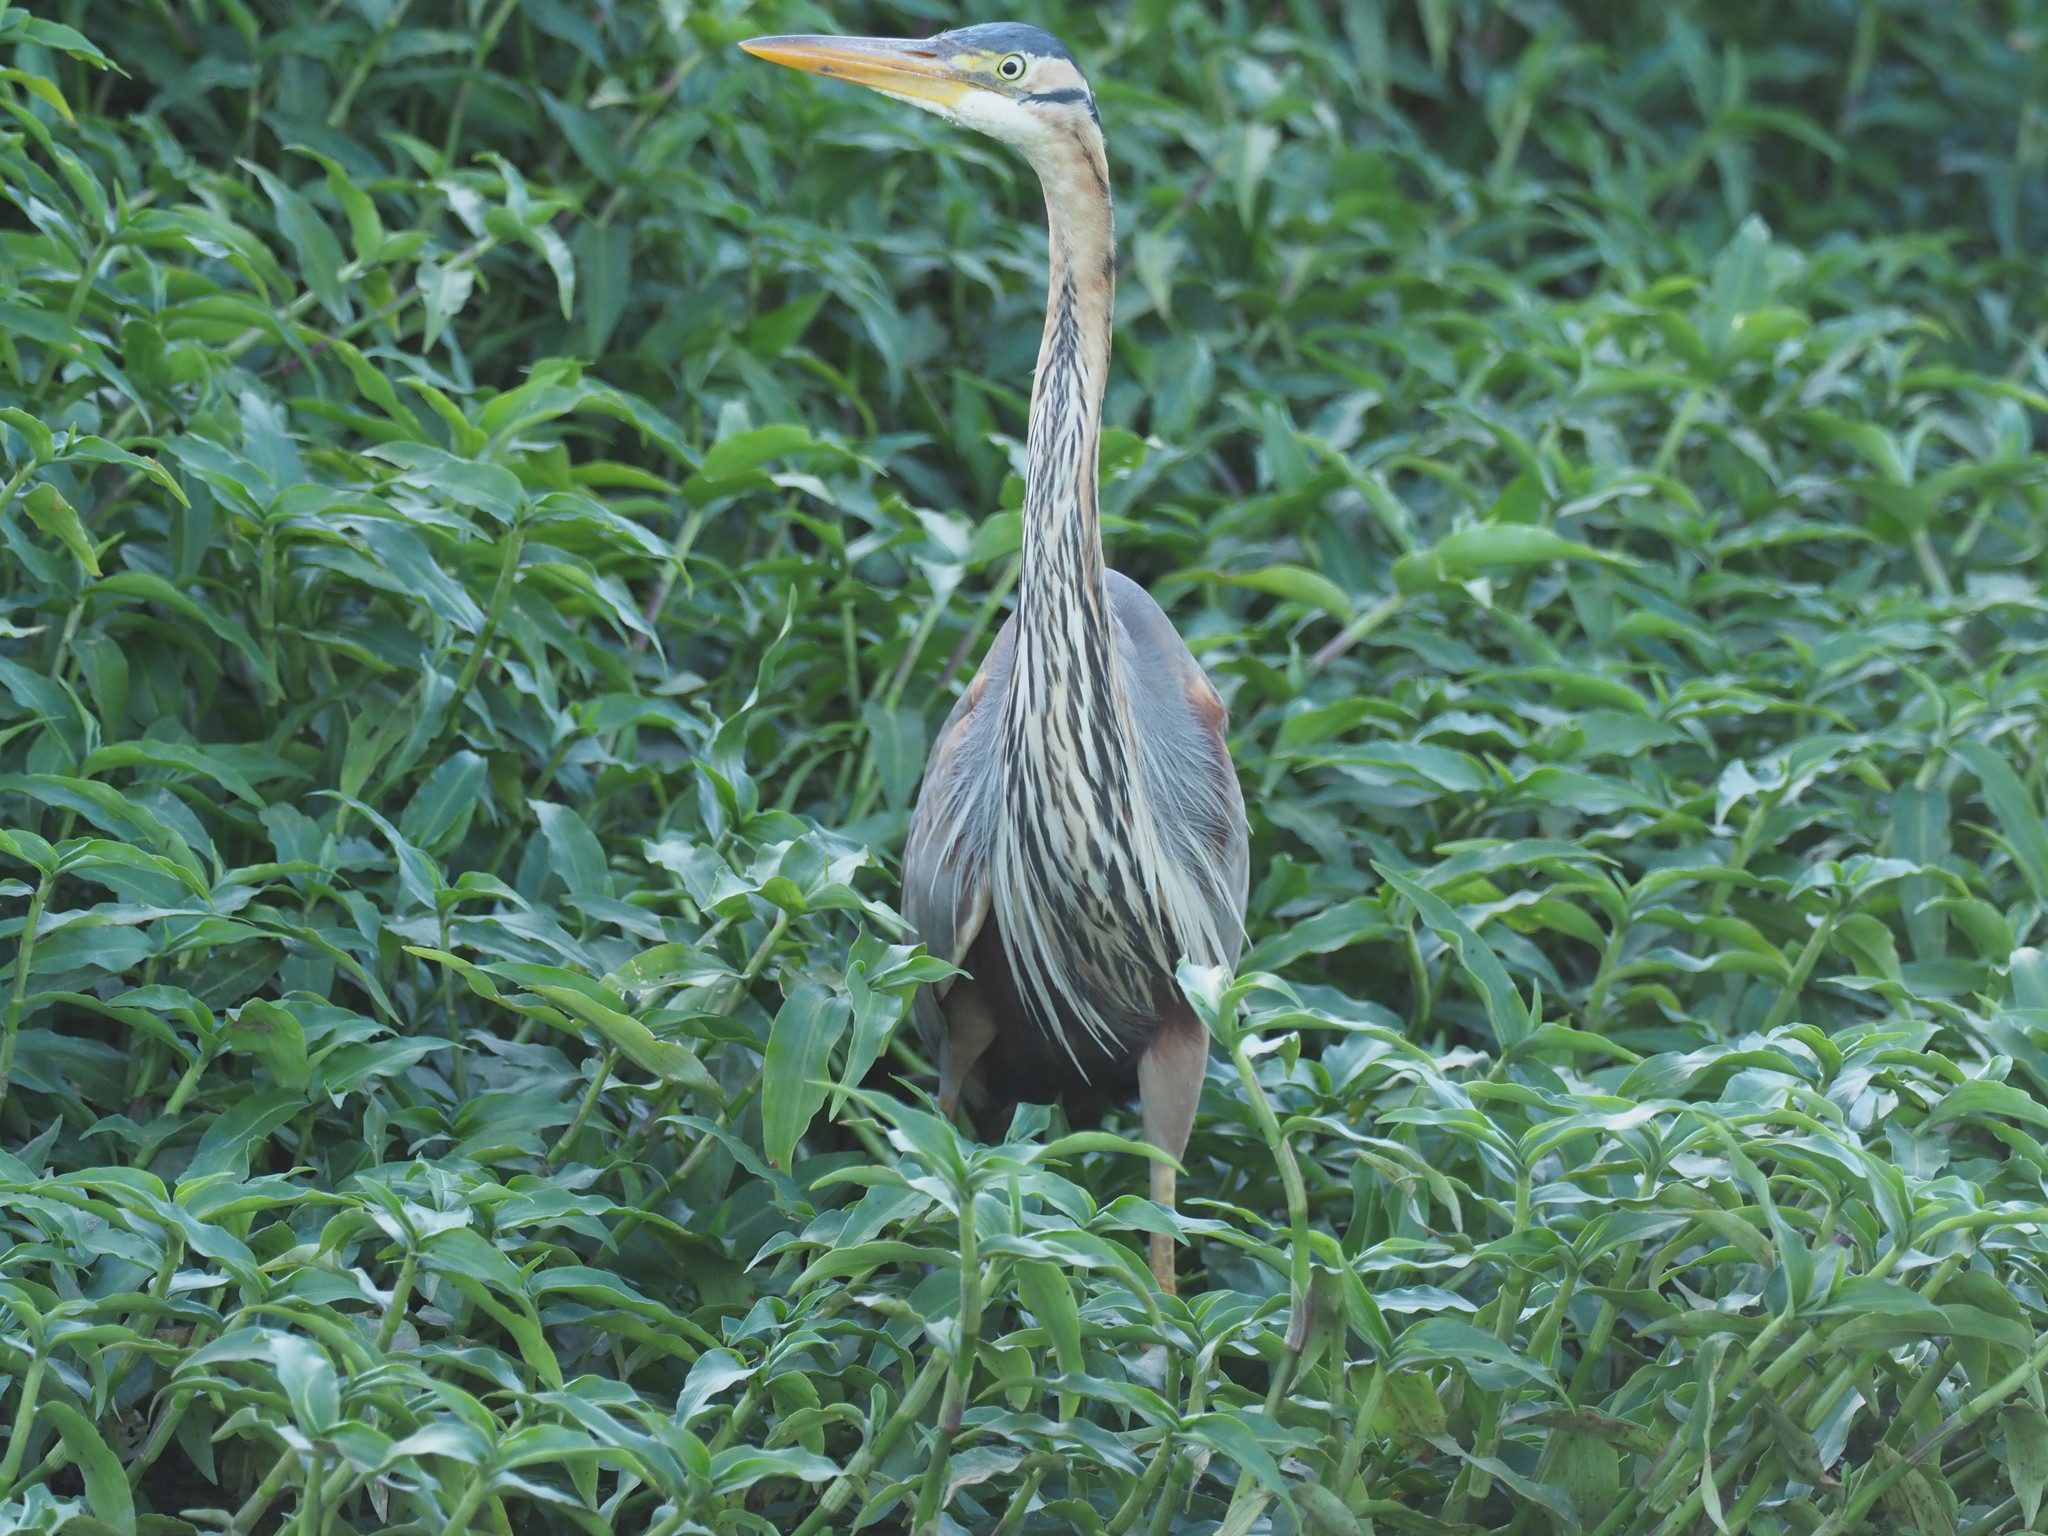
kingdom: Animalia
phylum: Chordata
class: Aves
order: Pelecaniformes
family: Ardeidae
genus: Ardea
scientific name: Ardea purpurea
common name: Purple heron
